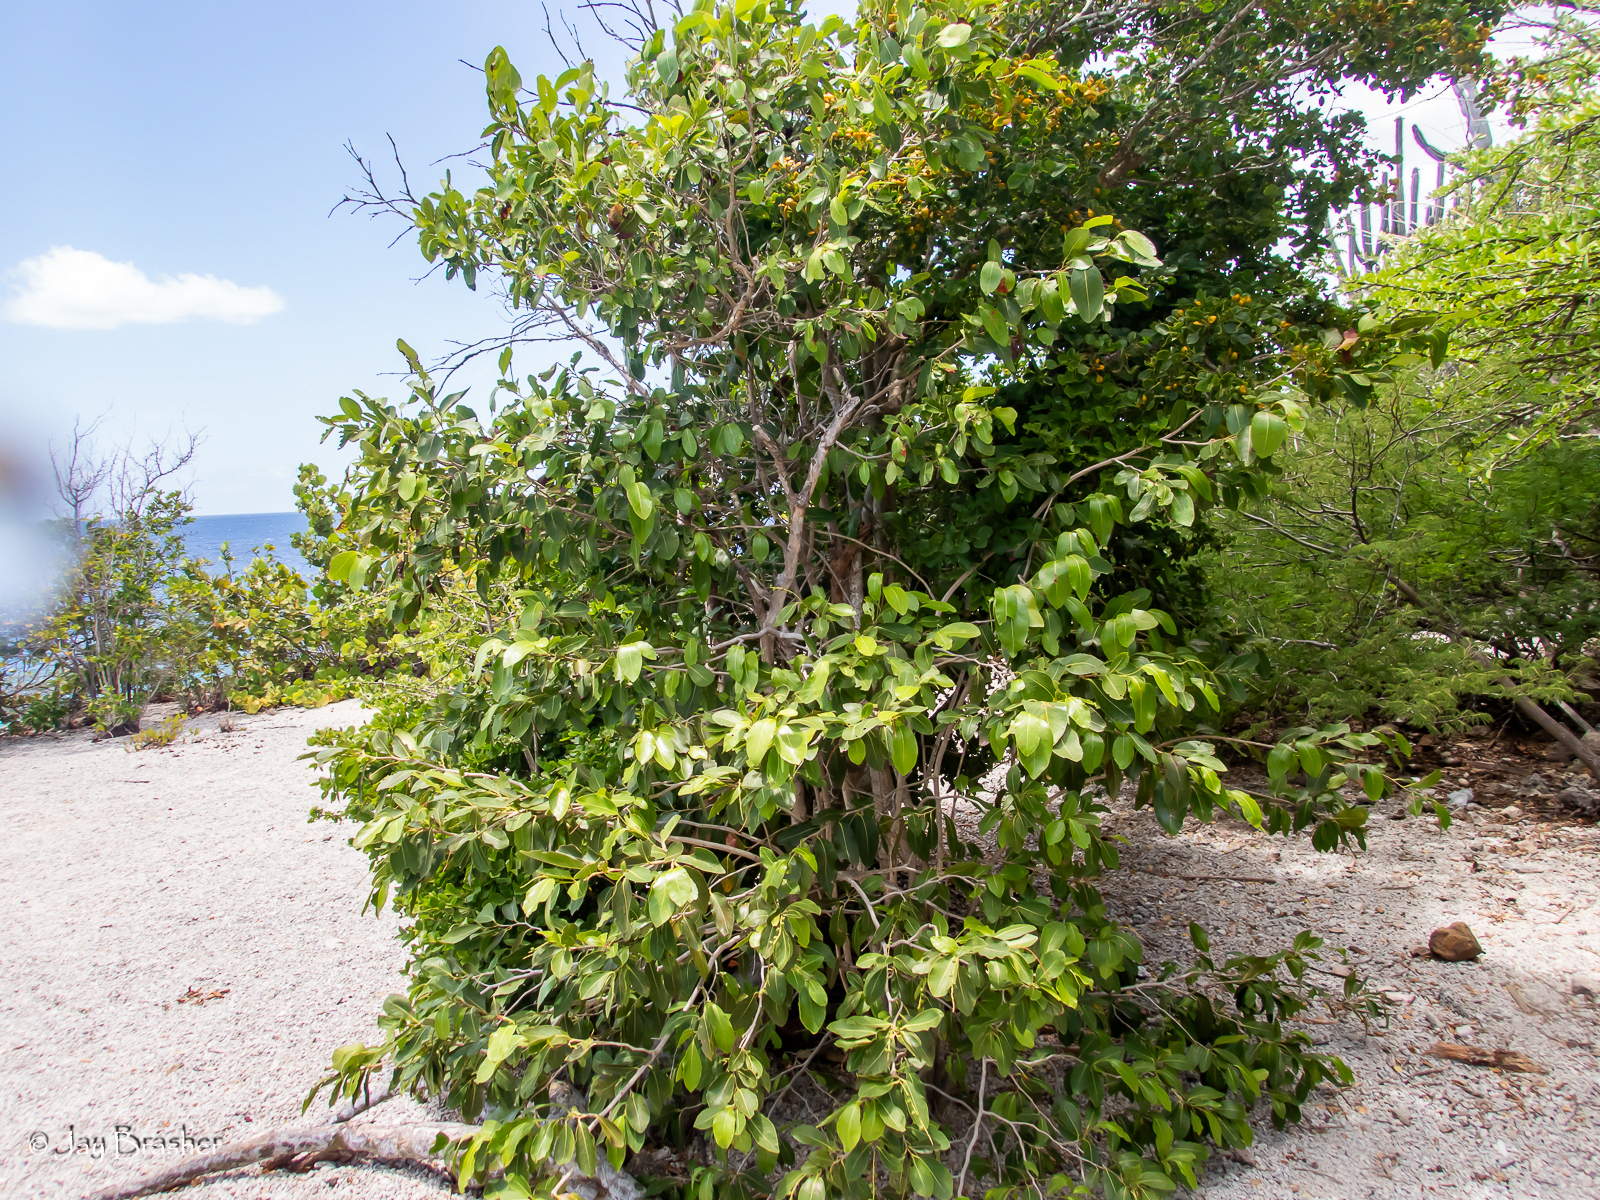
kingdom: Plantae
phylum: Tracheophyta
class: Magnoliopsida
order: Caryophyllales
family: Polygonaceae
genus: Coccoloba
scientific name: Coccoloba swartzii
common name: Red wood
